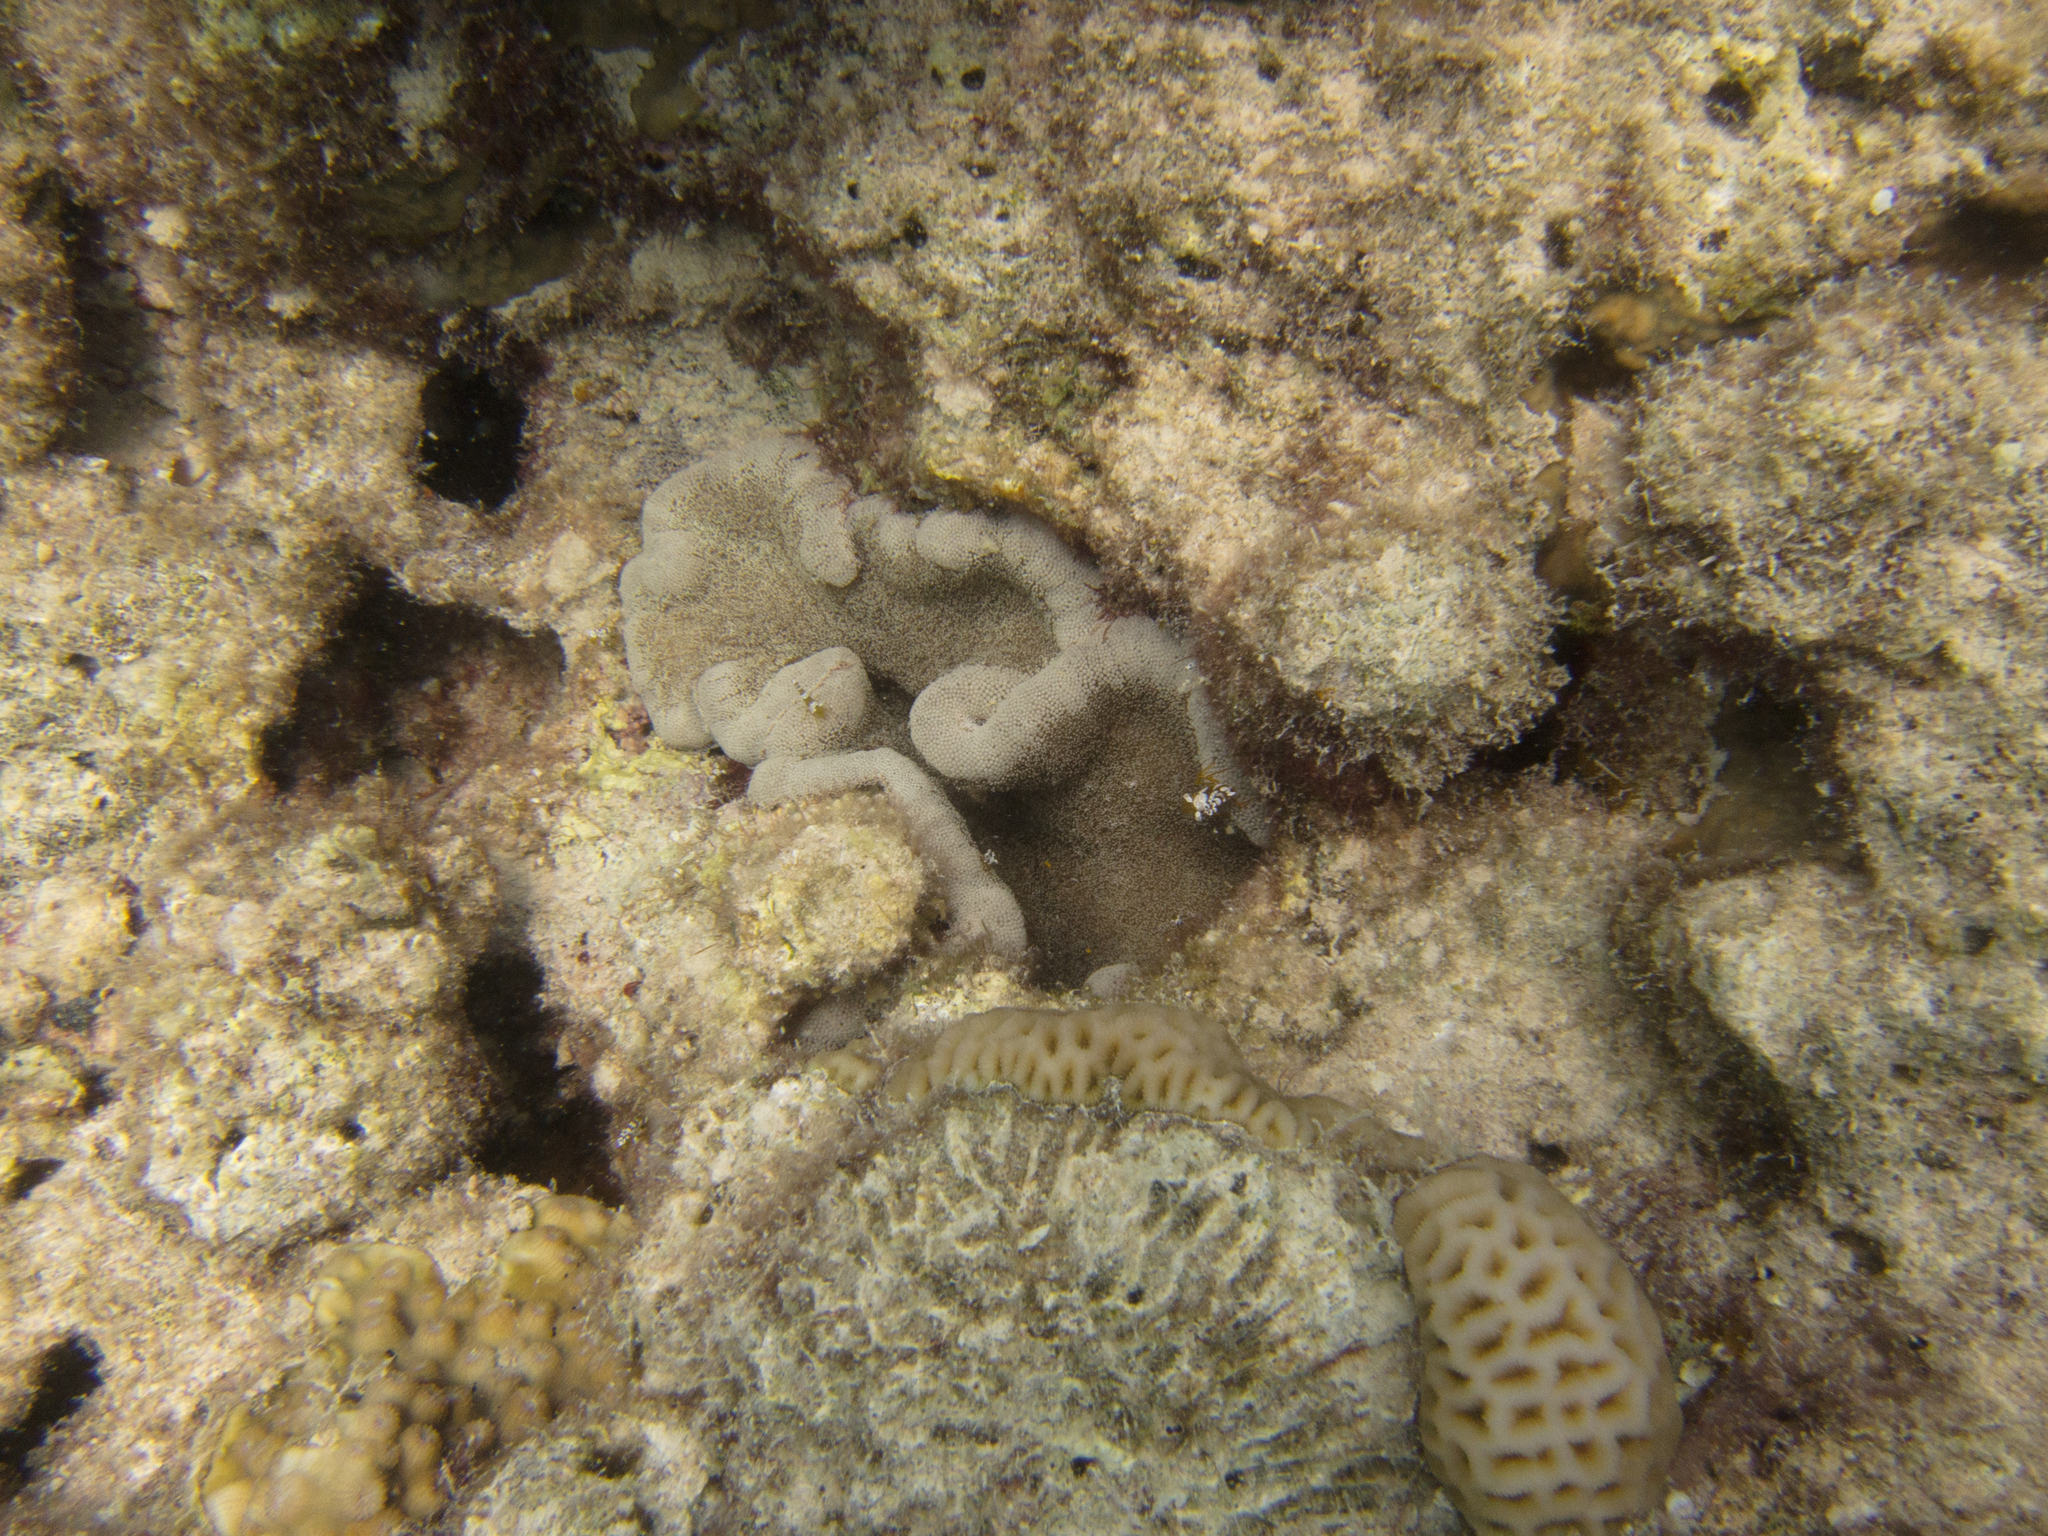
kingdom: Animalia
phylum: Cnidaria
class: Anthozoa
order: Actiniaria
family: Thalassianthidae
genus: Cryptodendrum
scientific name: Cryptodendrum adhaesivum
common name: Adhesive sea anemone
